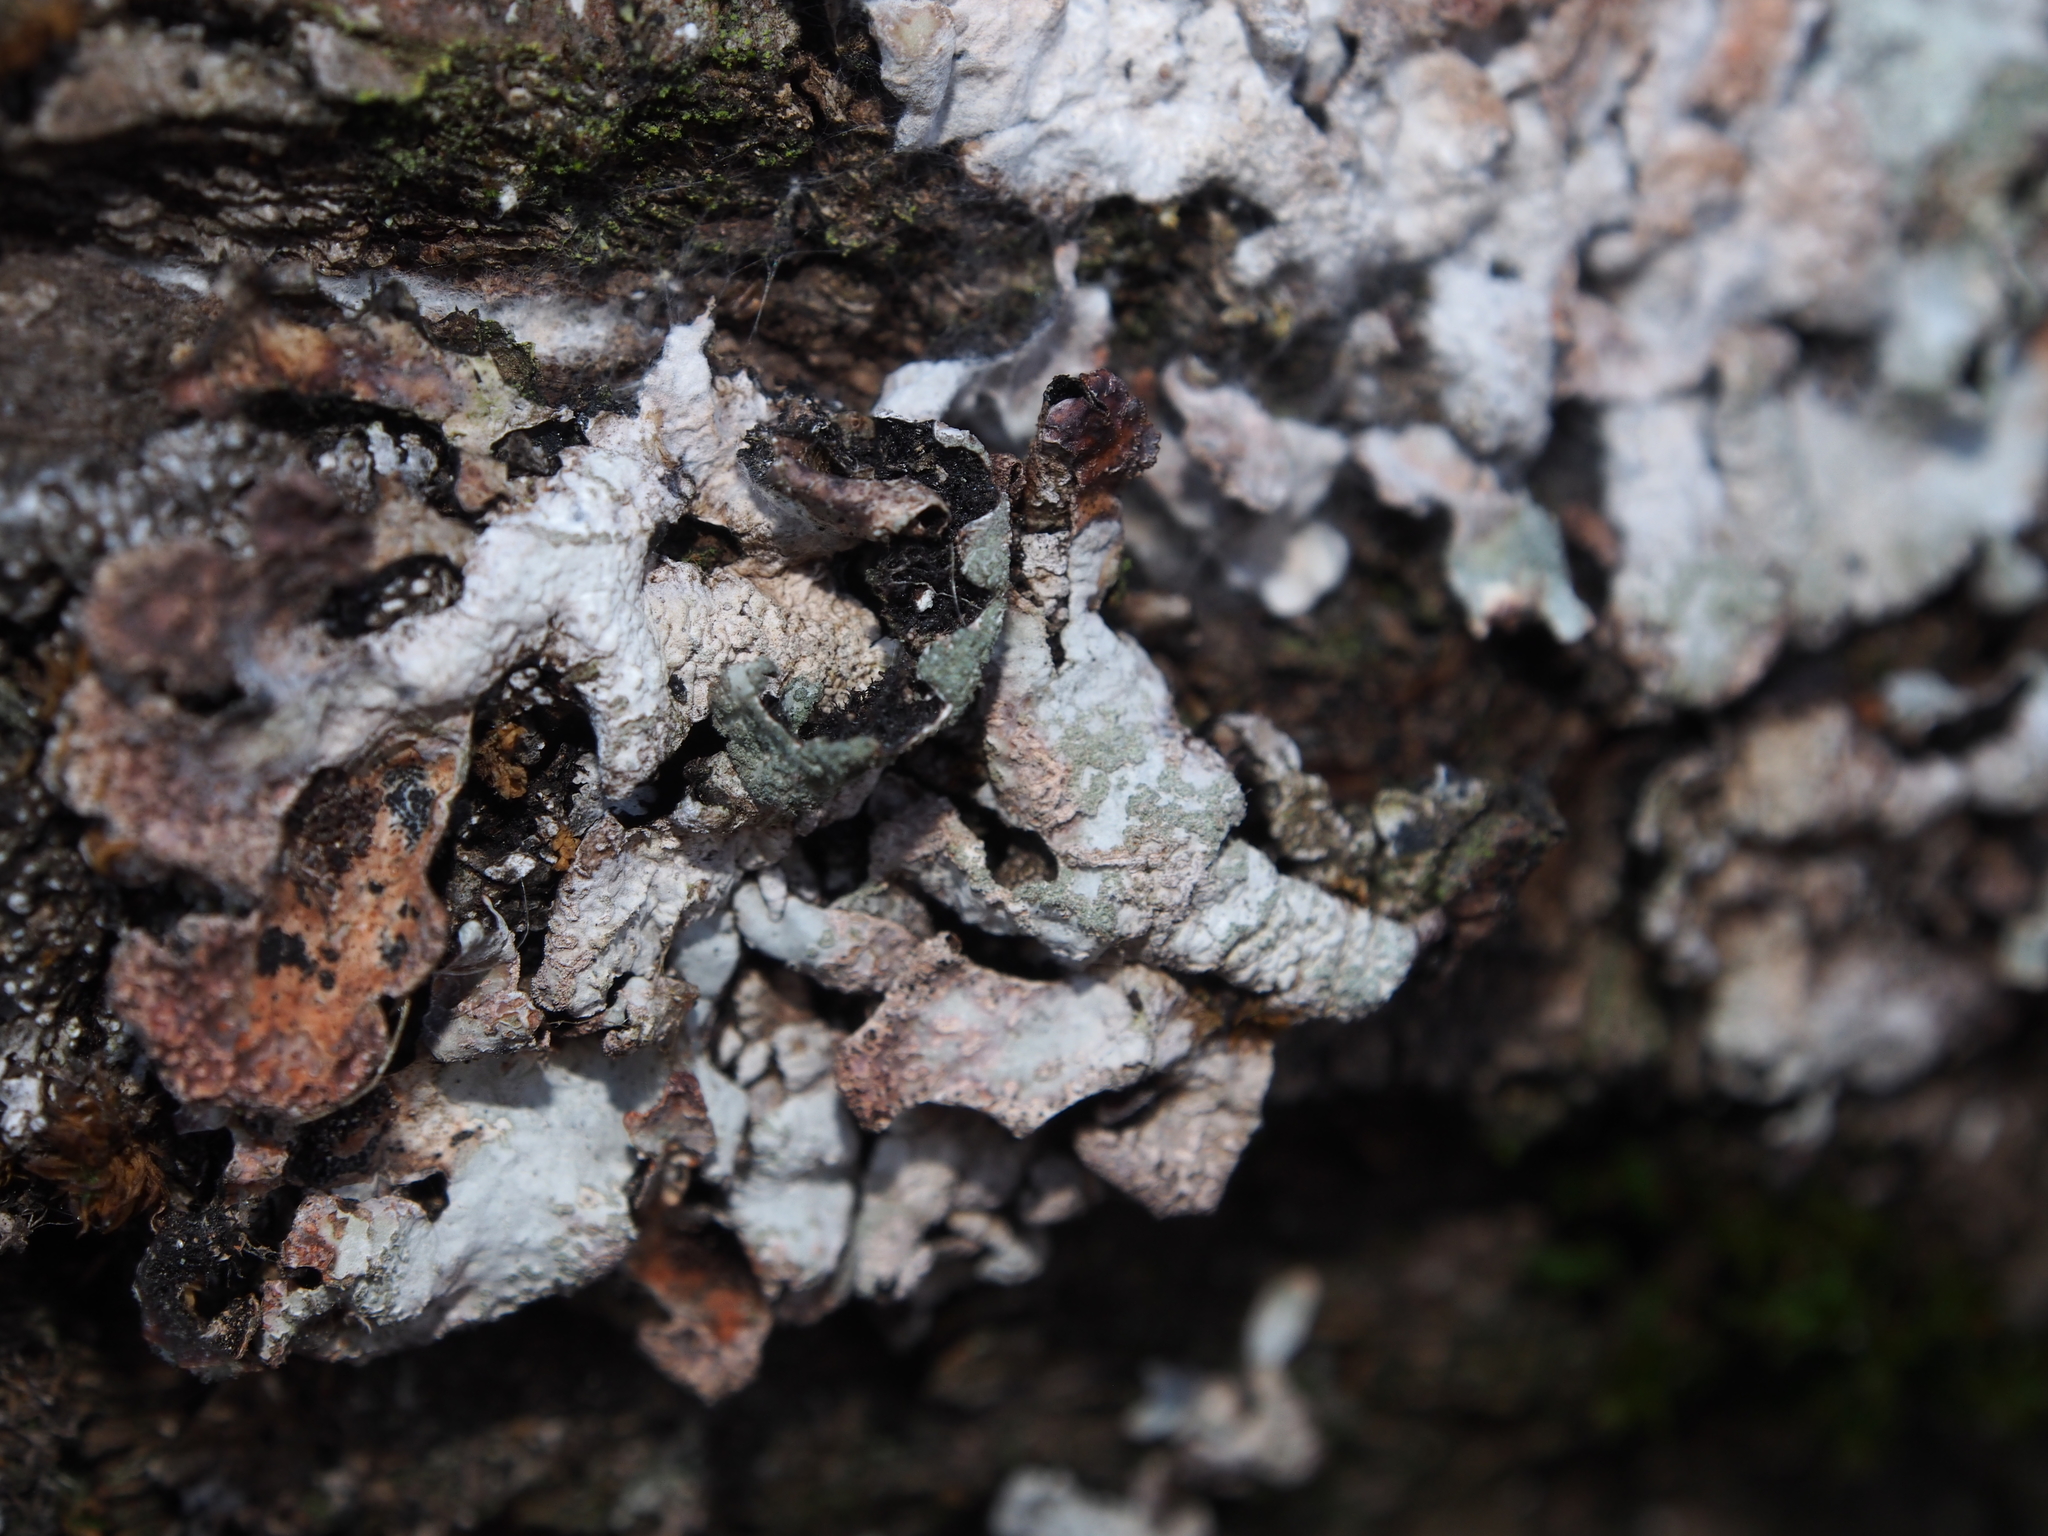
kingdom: Fungi
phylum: Ascomycota
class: Lecanoromycetes
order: Lecanorales
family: Parmeliaceae
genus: Parmelia
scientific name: Parmelia sulcata
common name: Netted shield lichen
